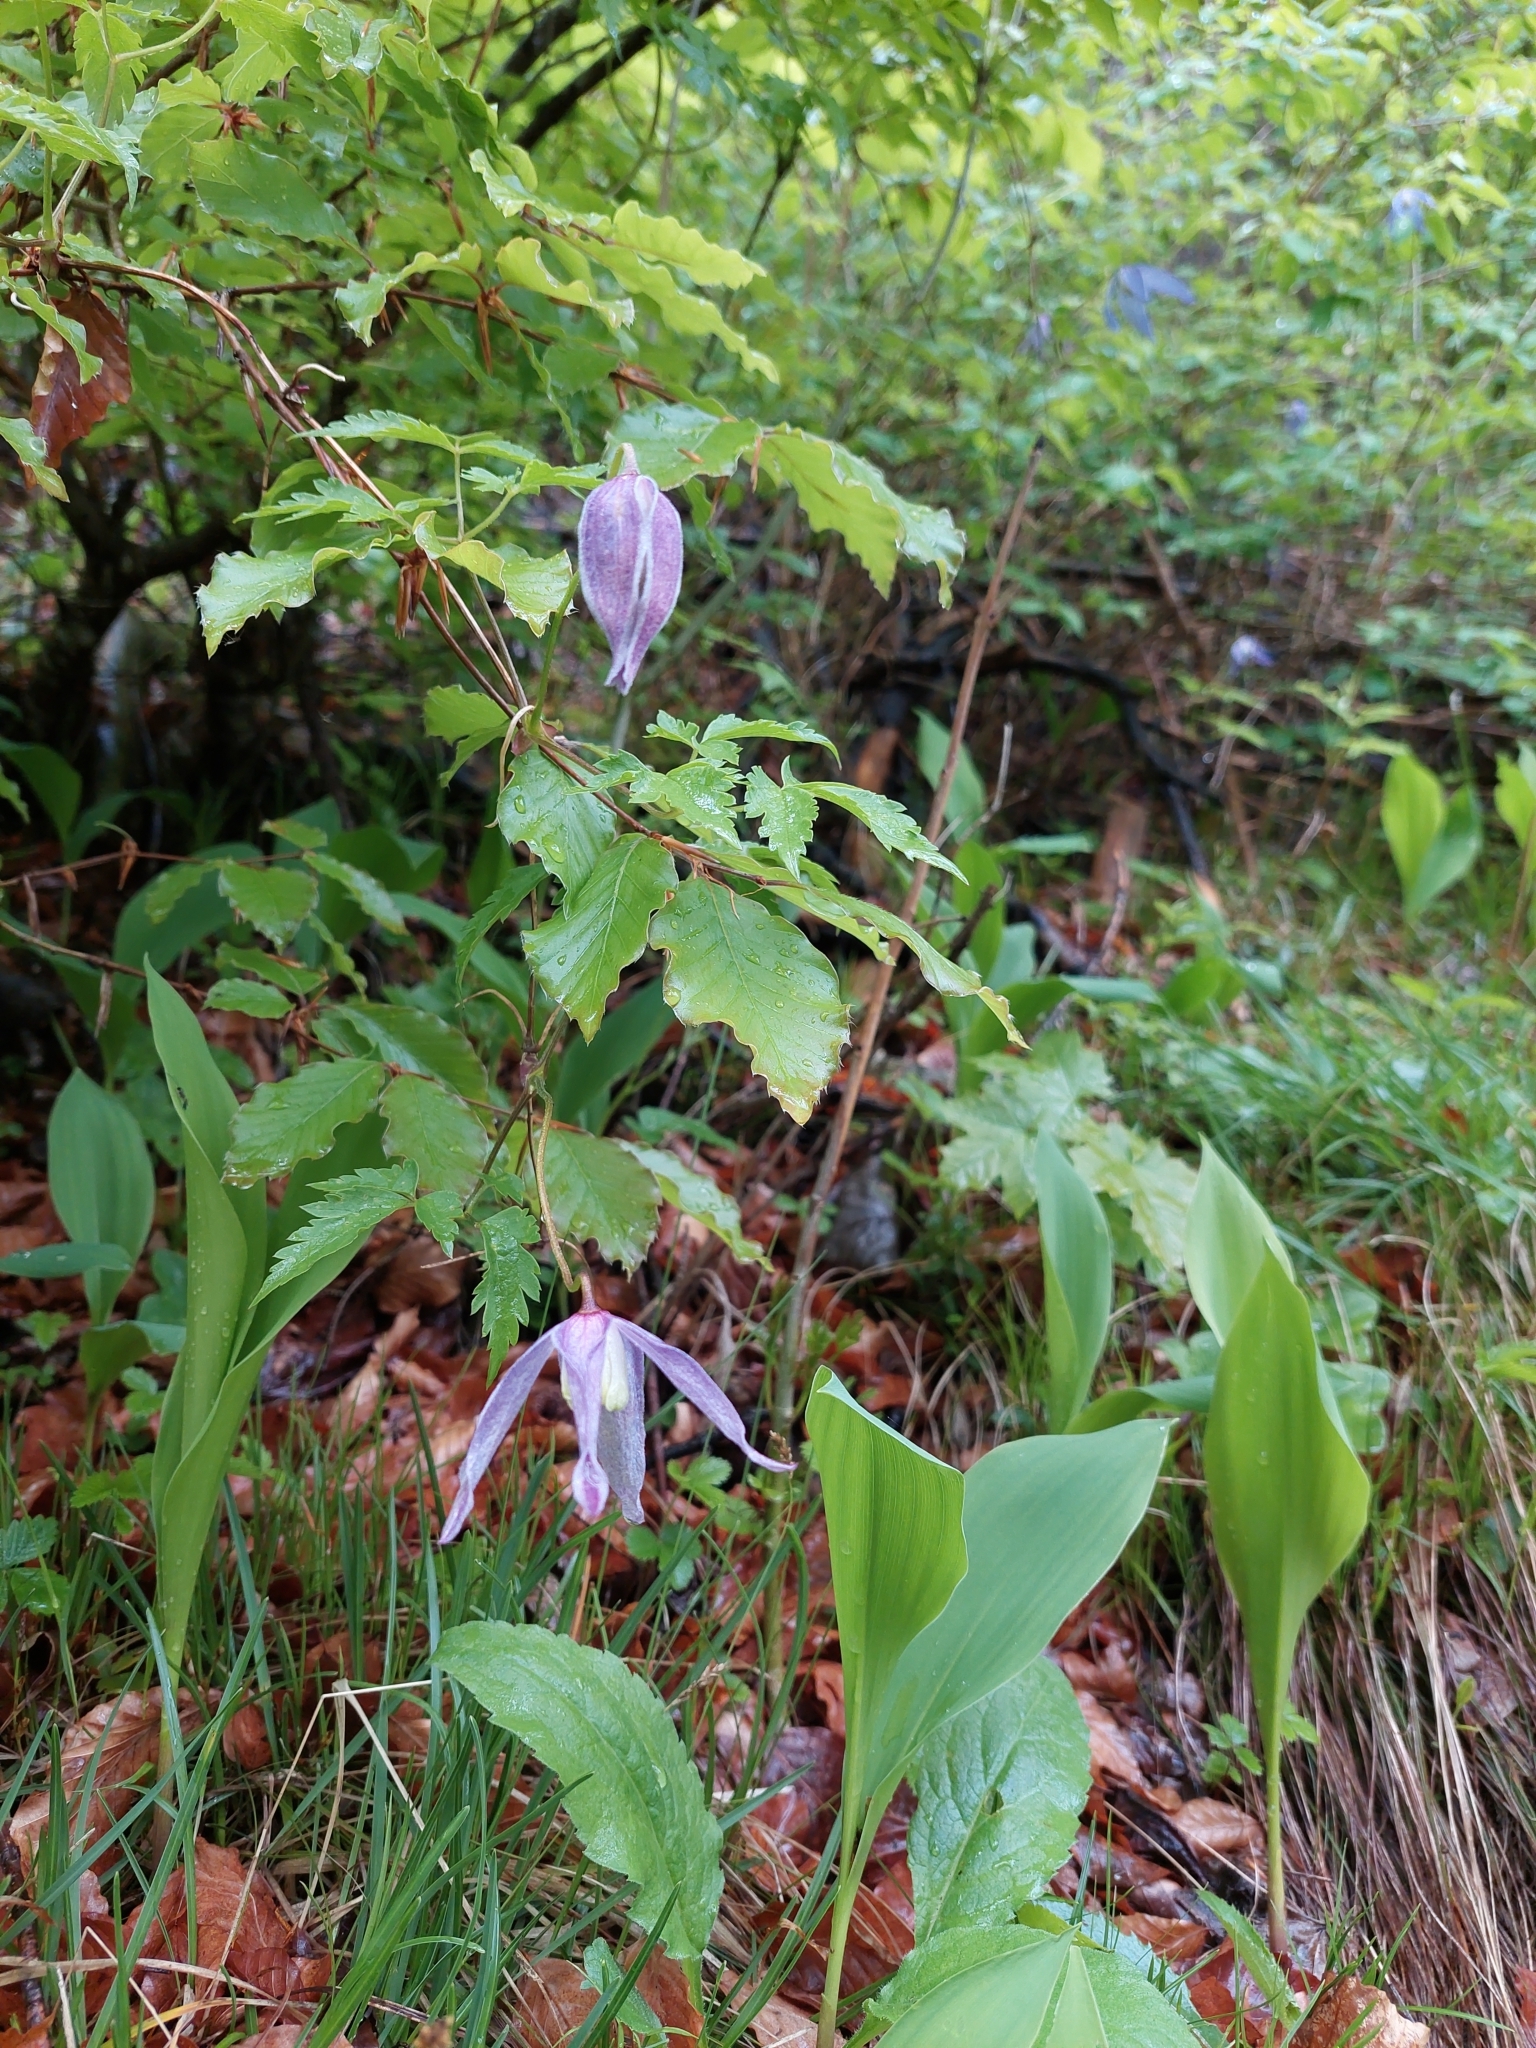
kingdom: Plantae
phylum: Tracheophyta
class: Magnoliopsida
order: Ranunculales
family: Ranunculaceae
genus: Clematis
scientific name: Clematis alpina
